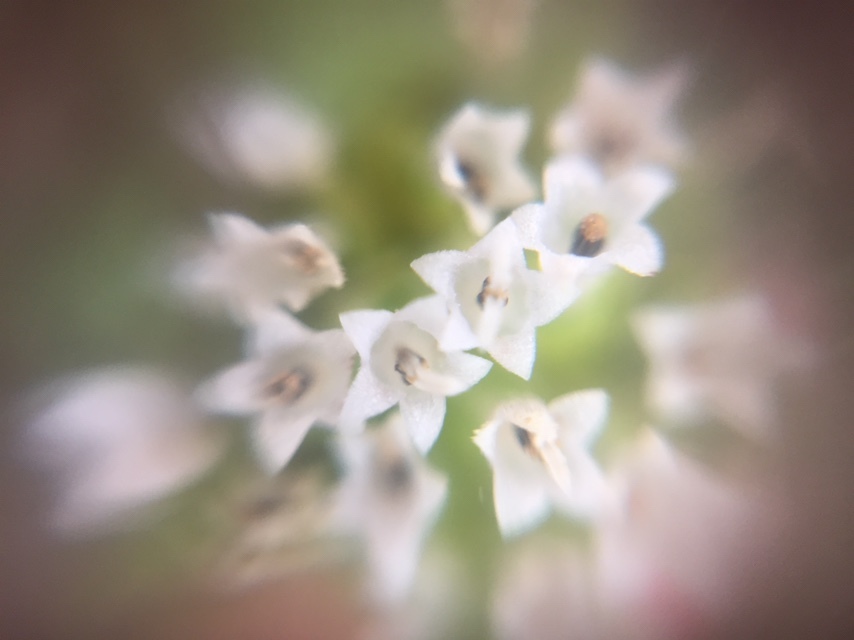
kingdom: Plantae
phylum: Tracheophyta
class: Magnoliopsida
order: Asterales
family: Asteraceae
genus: Synedrella
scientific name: Synedrella nodiflora
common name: Nodeweed
